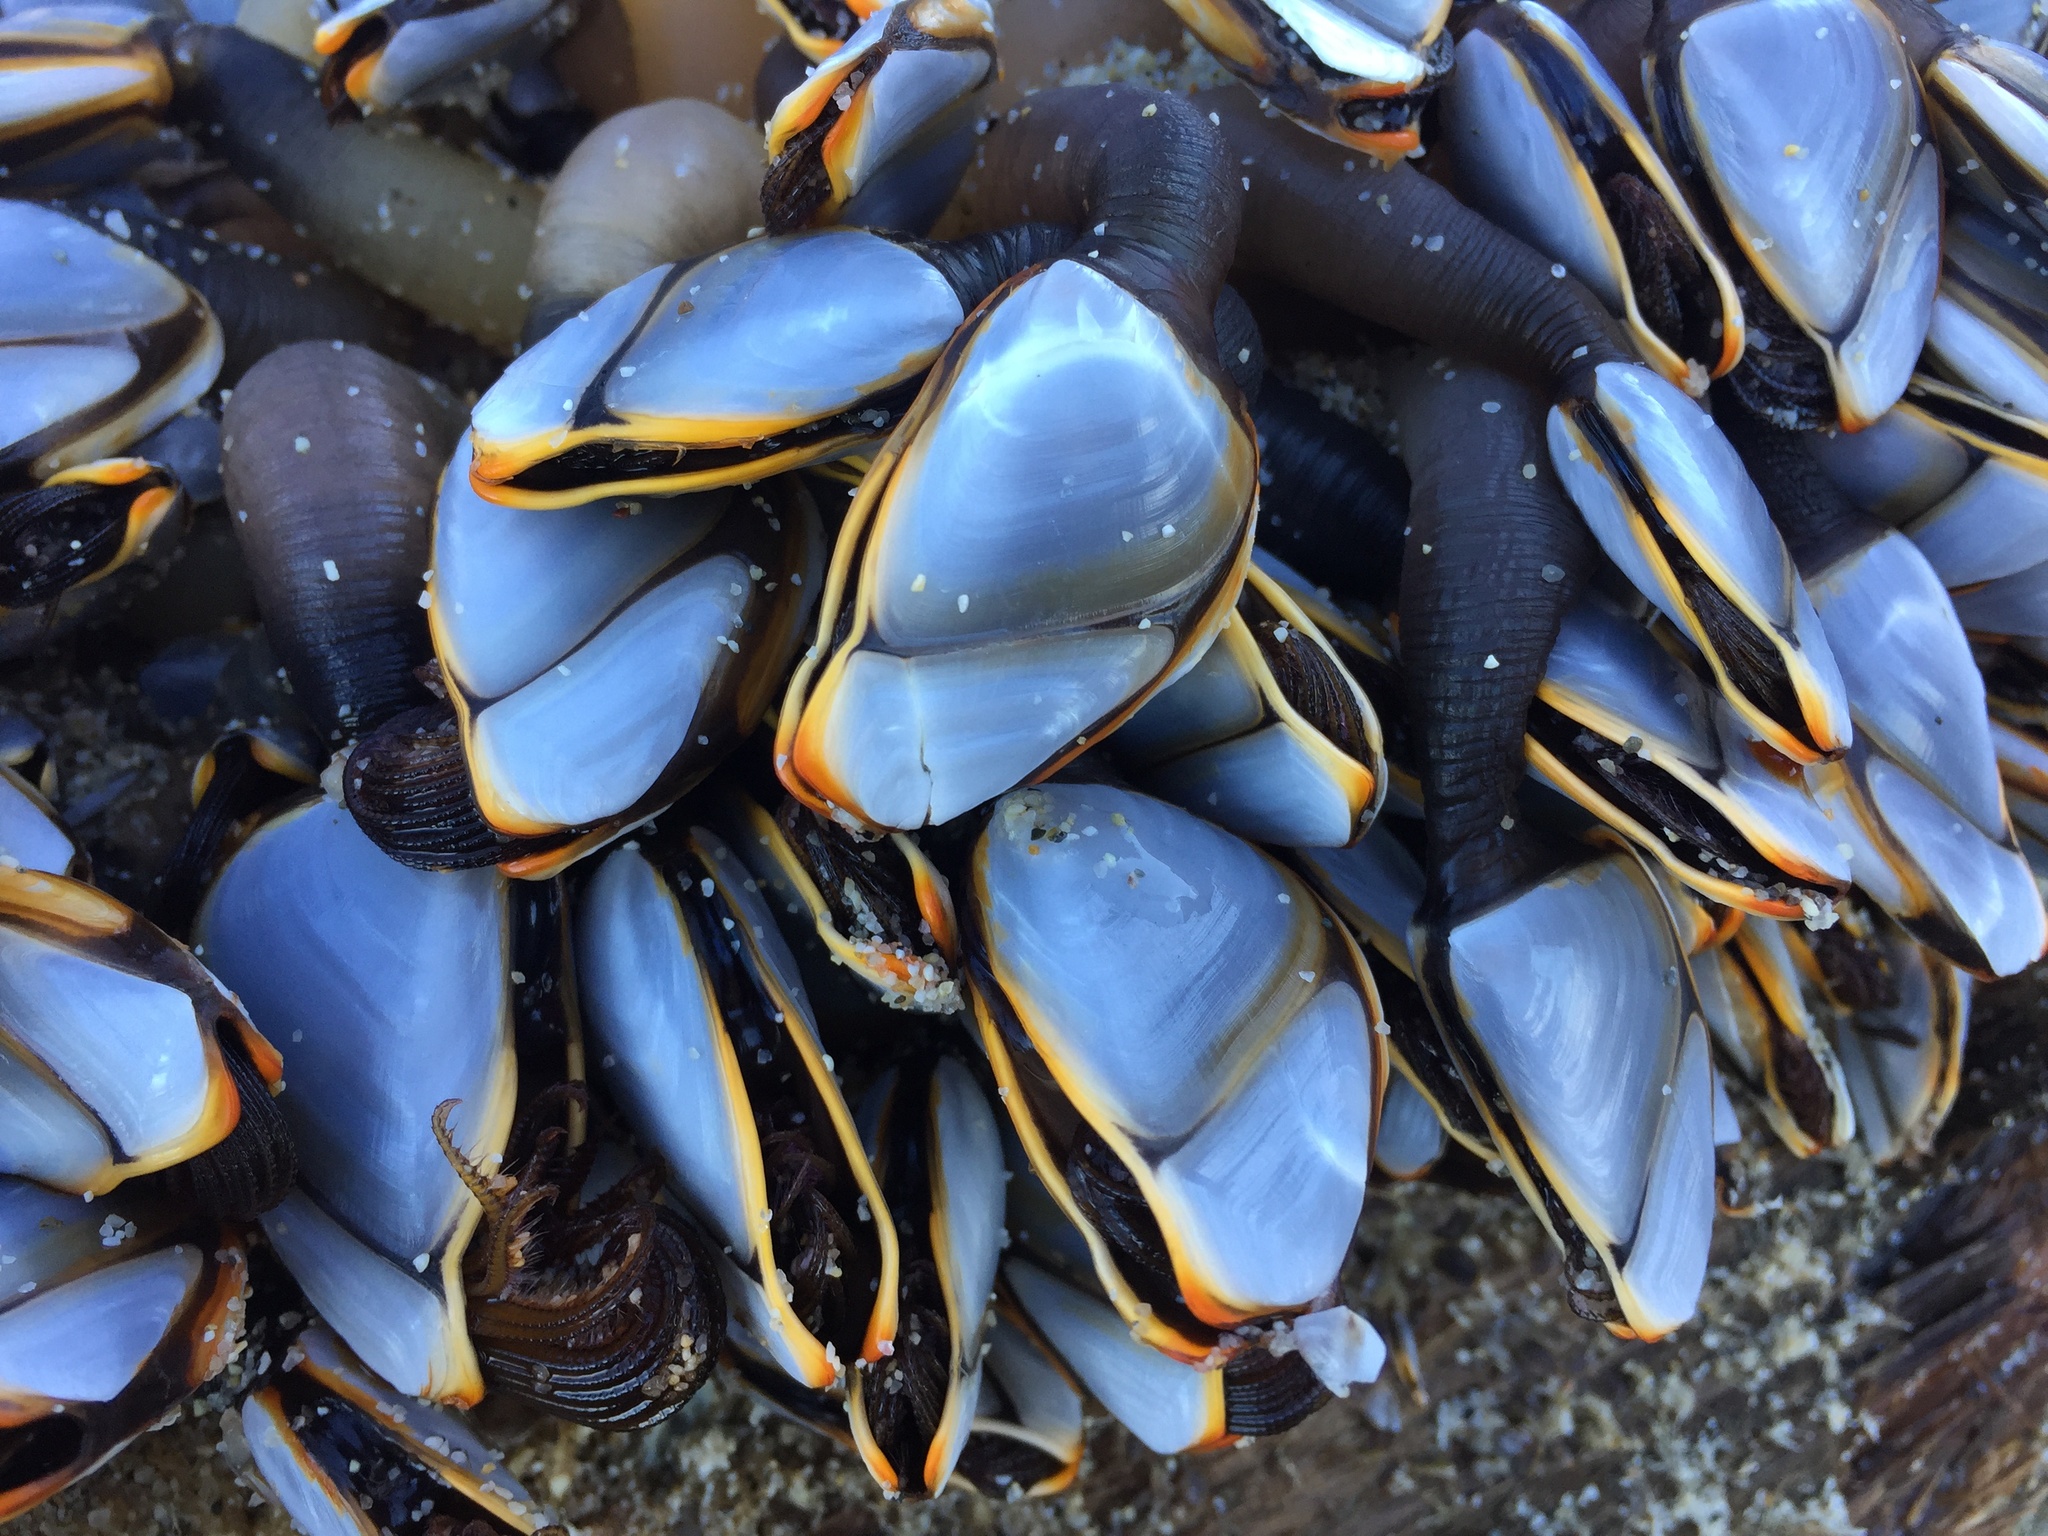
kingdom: Animalia
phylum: Arthropoda
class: Maxillopoda
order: Pedunculata
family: Lepadidae
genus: Lepas
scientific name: Lepas anatifera
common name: Common goose barnacle
